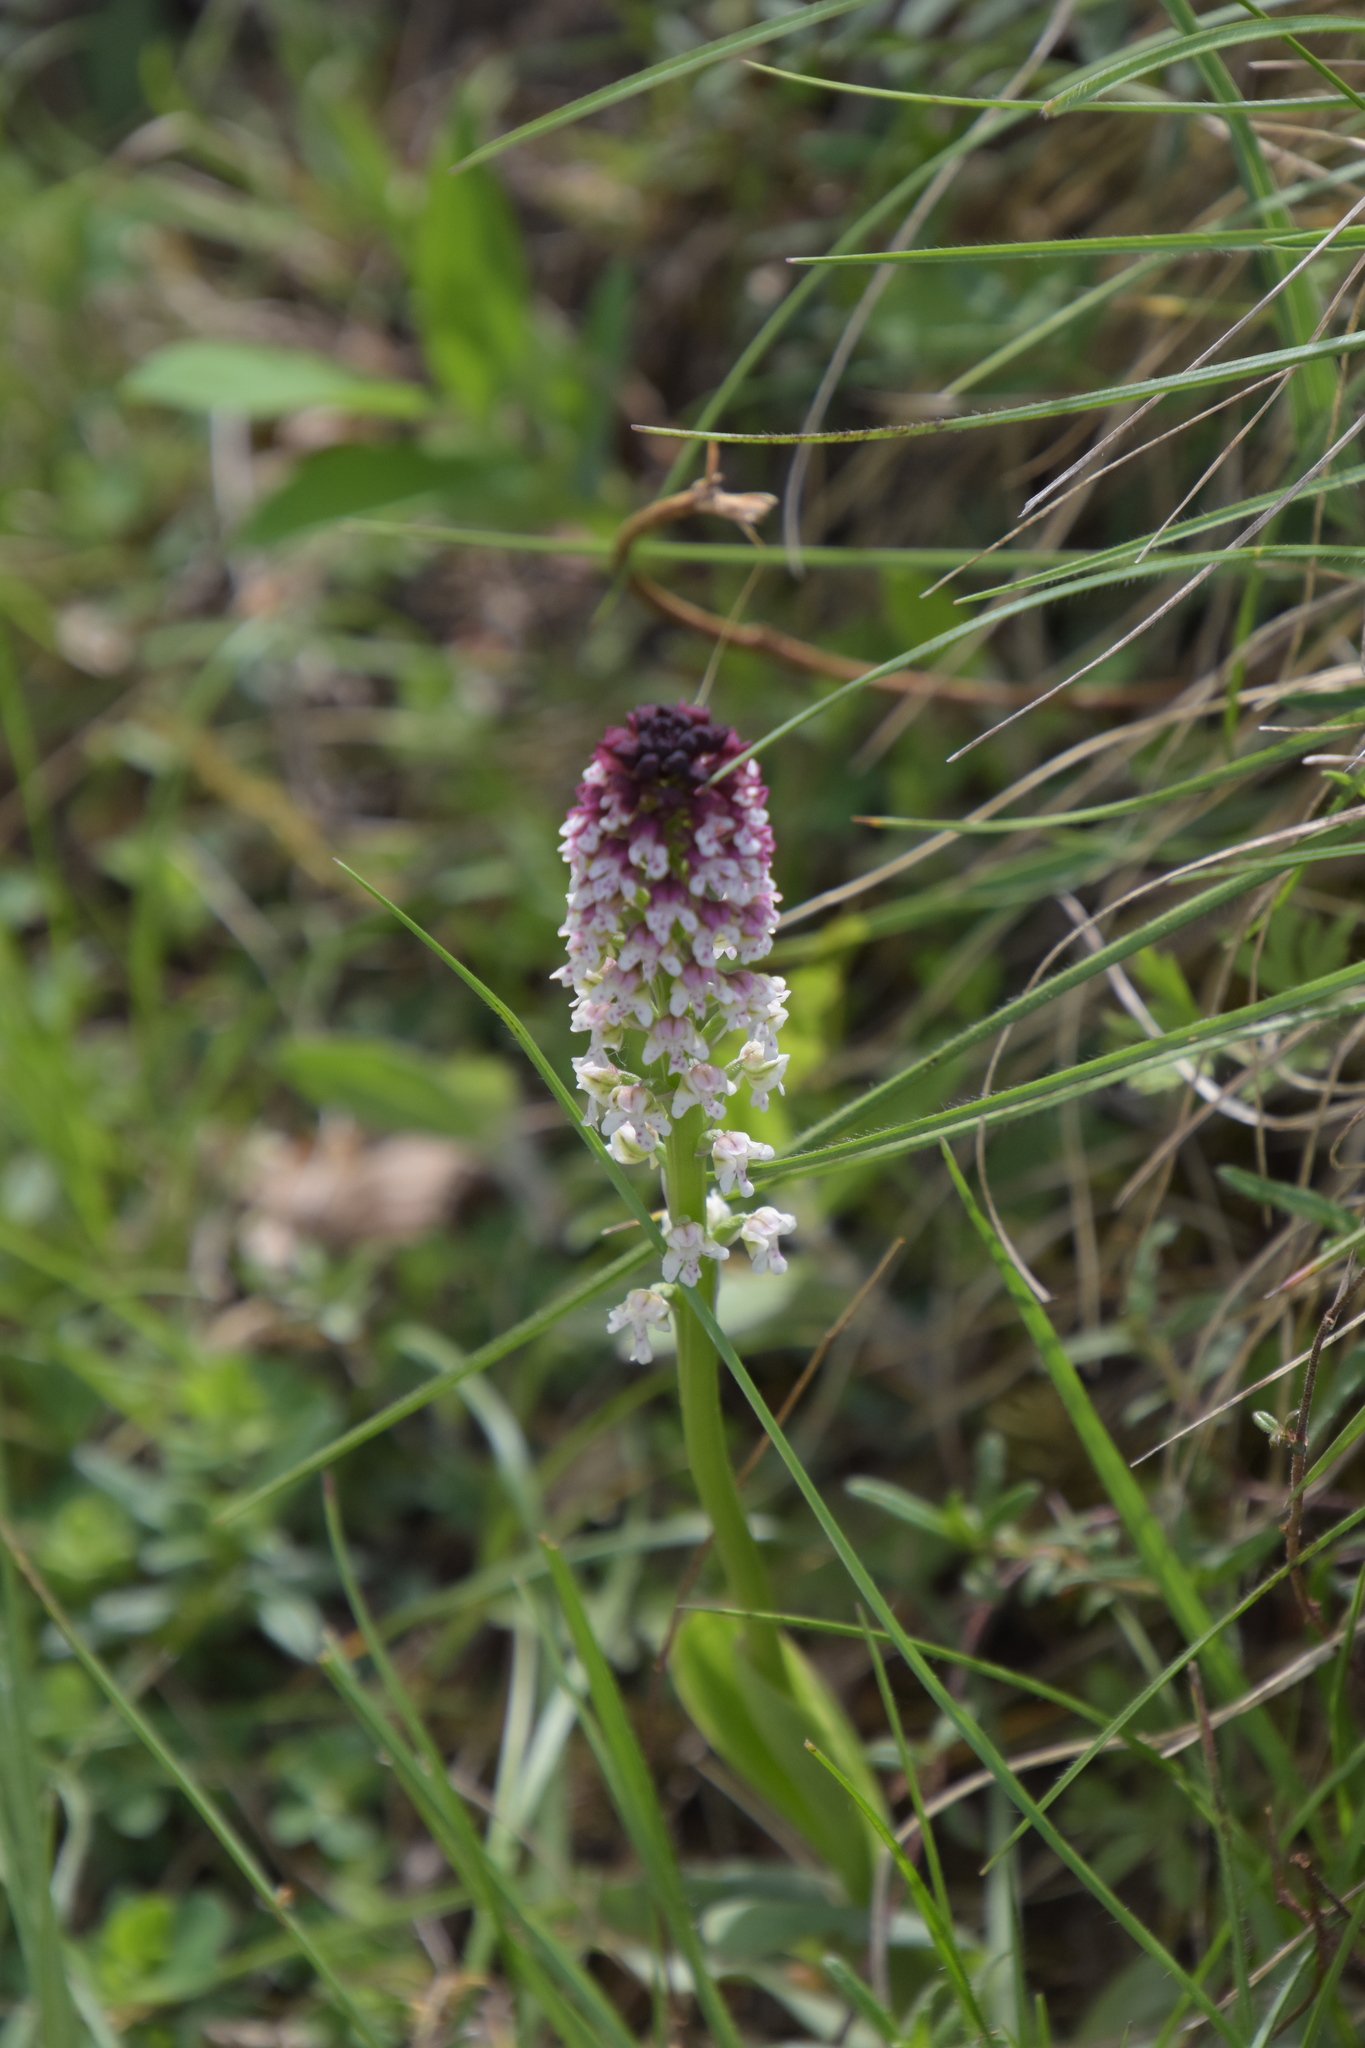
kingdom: Plantae
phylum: Tracheophyta
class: Liliopsida
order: Asparagales
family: Orchidaceae
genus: Neotinea
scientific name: Neotinea ustulata
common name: Burnt orchid
